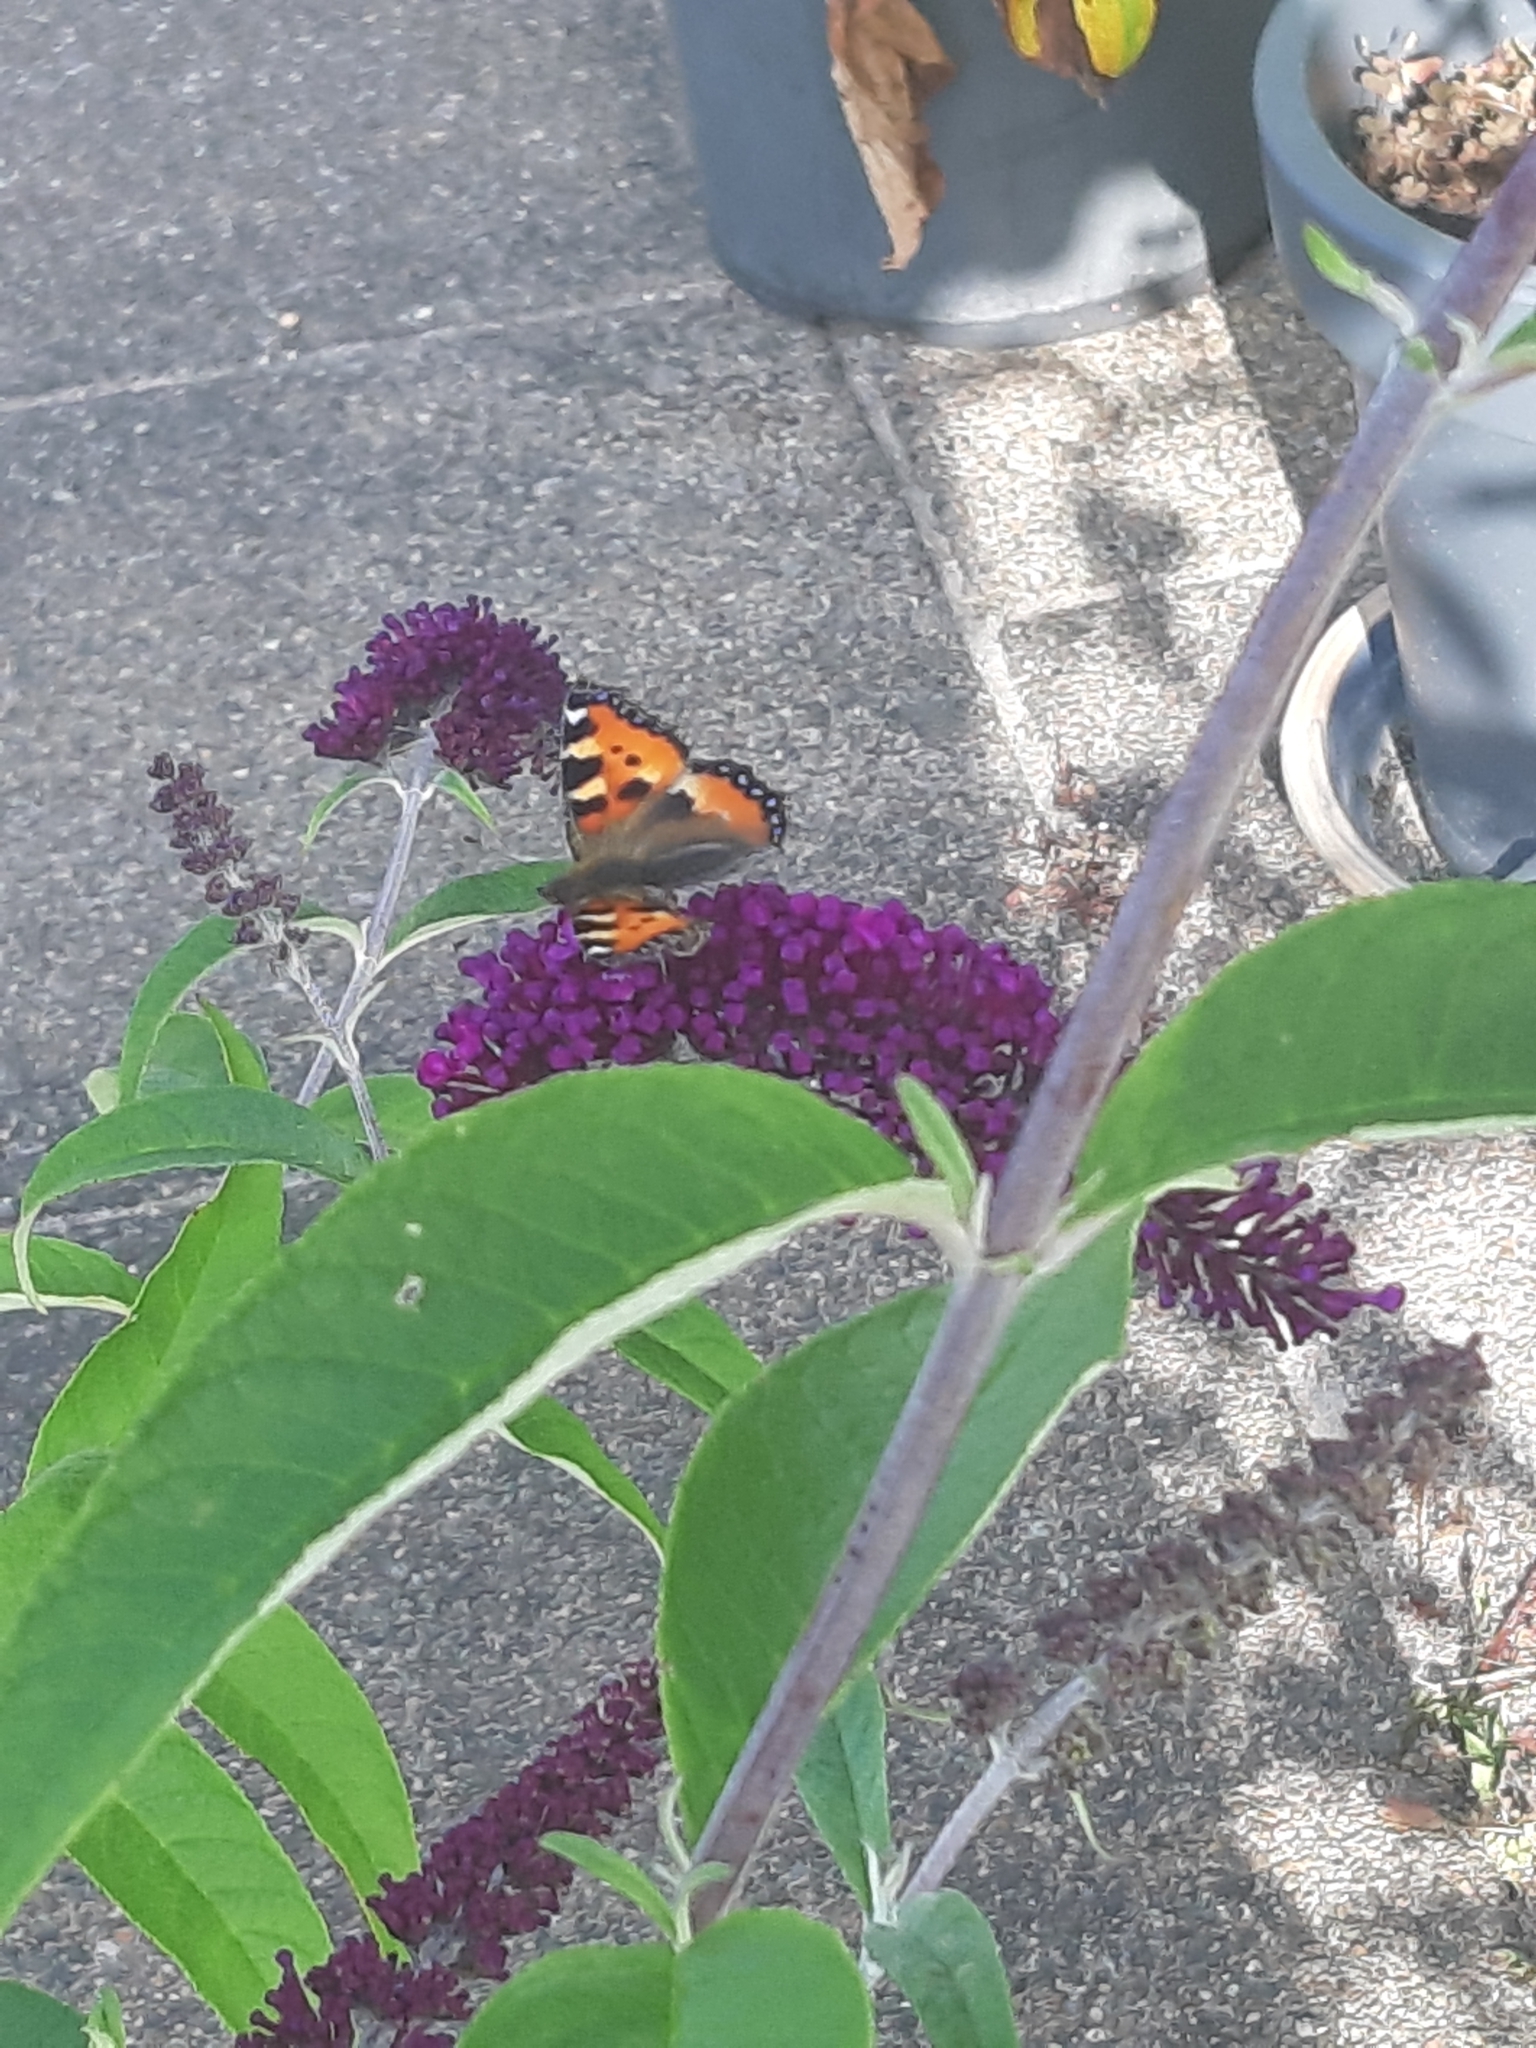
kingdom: Animalia
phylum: Arthropoda
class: Insecta
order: Lepidoptera
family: Nymphalidae
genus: Aglais
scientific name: Aglais urticae
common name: Small tortoiseshell
